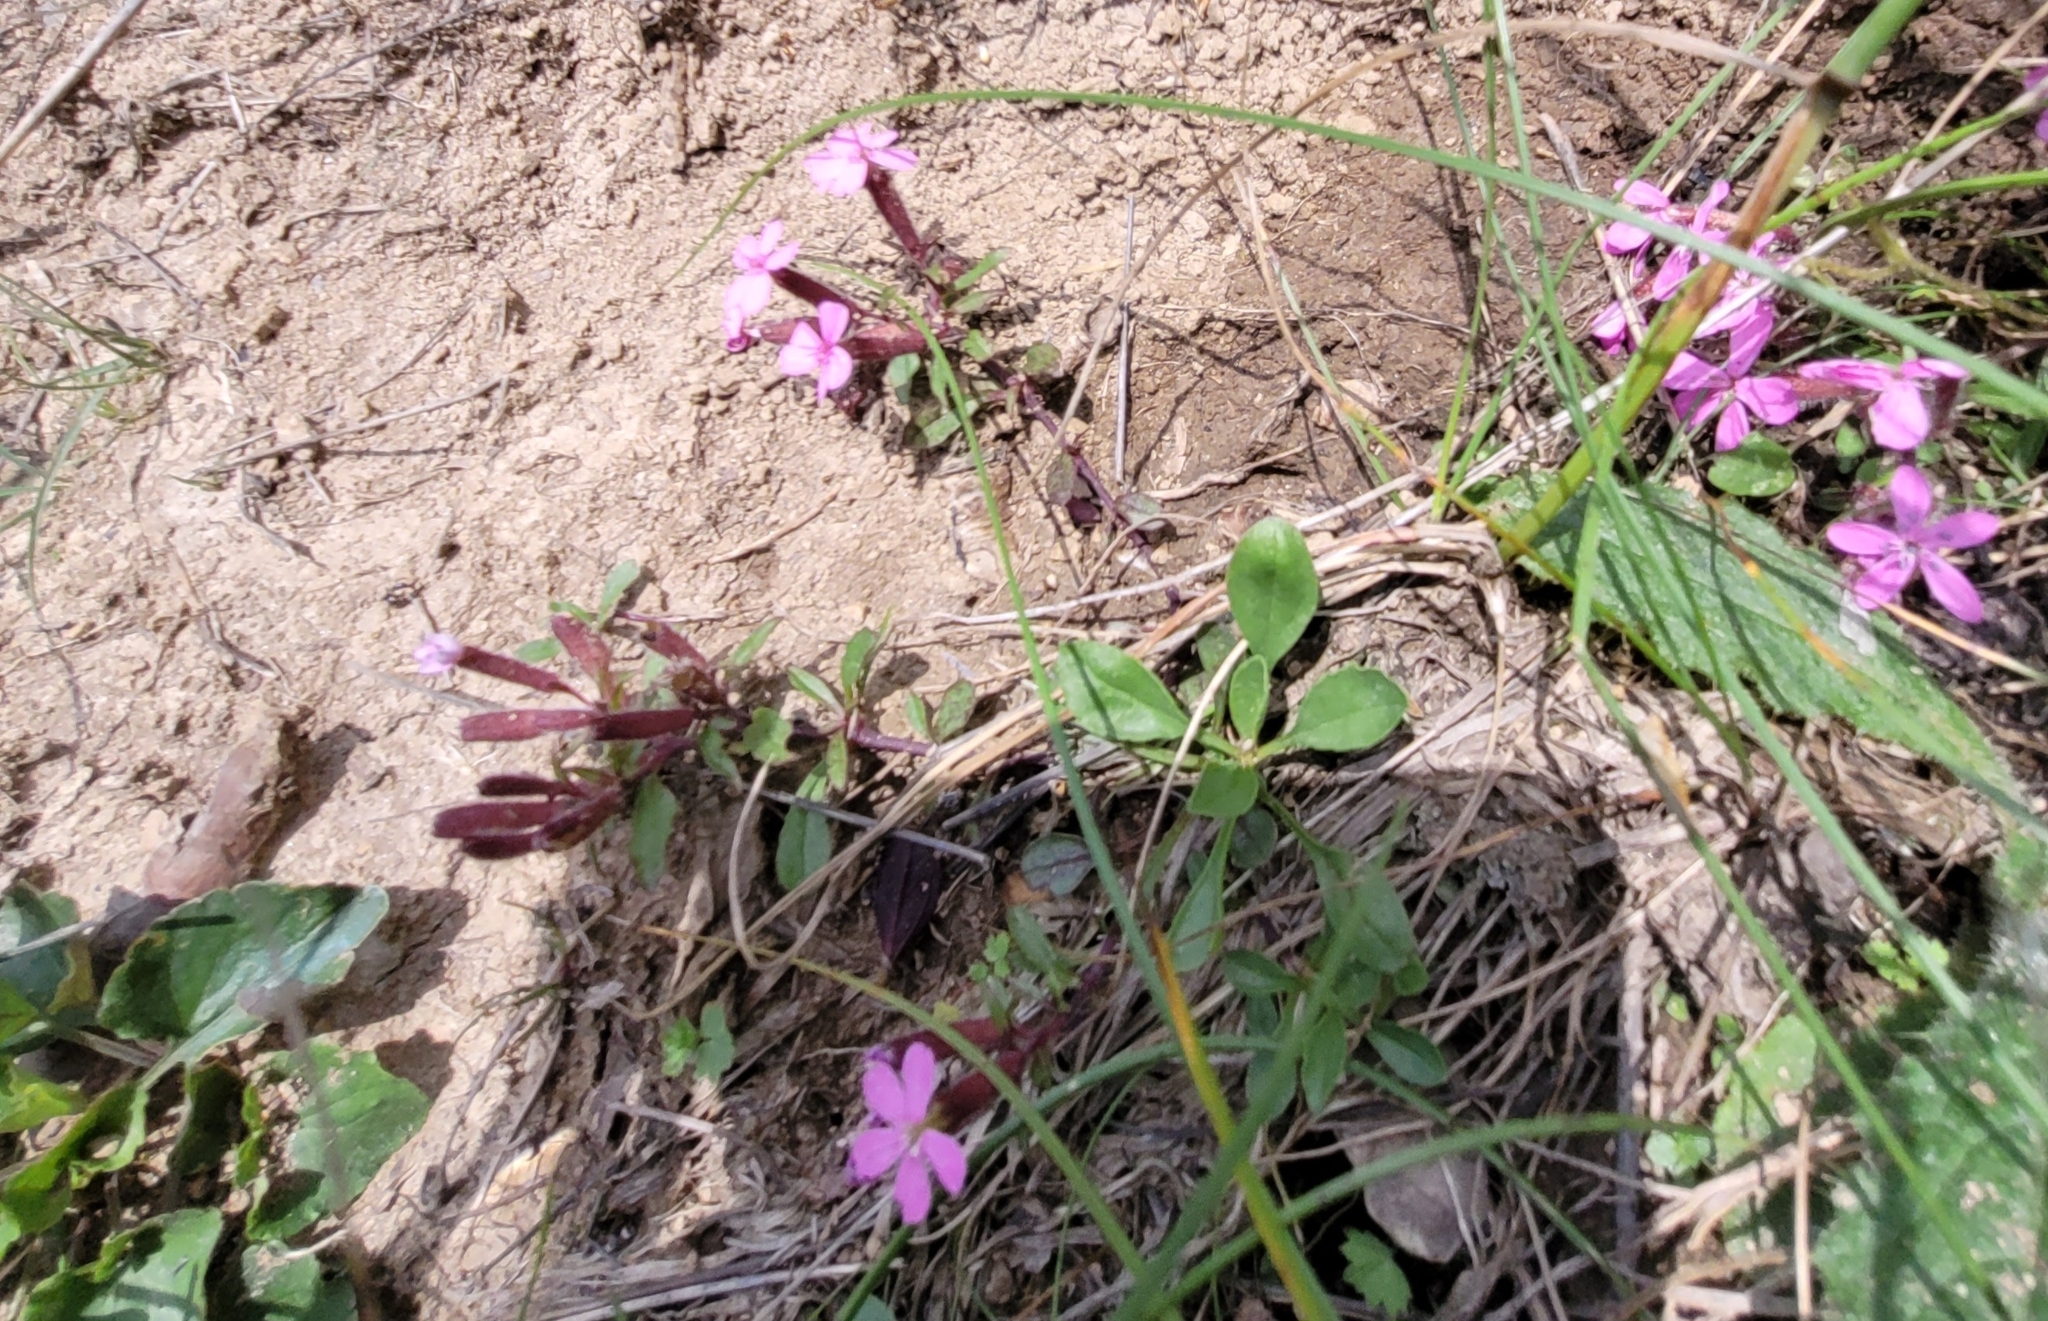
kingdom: Plantae
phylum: Tracheophyta
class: Magnoliopsida
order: Caryophyllales
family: Caryophyllaceae
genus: Saponaria
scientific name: Saponaria ocymoides
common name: Rock soapwort
